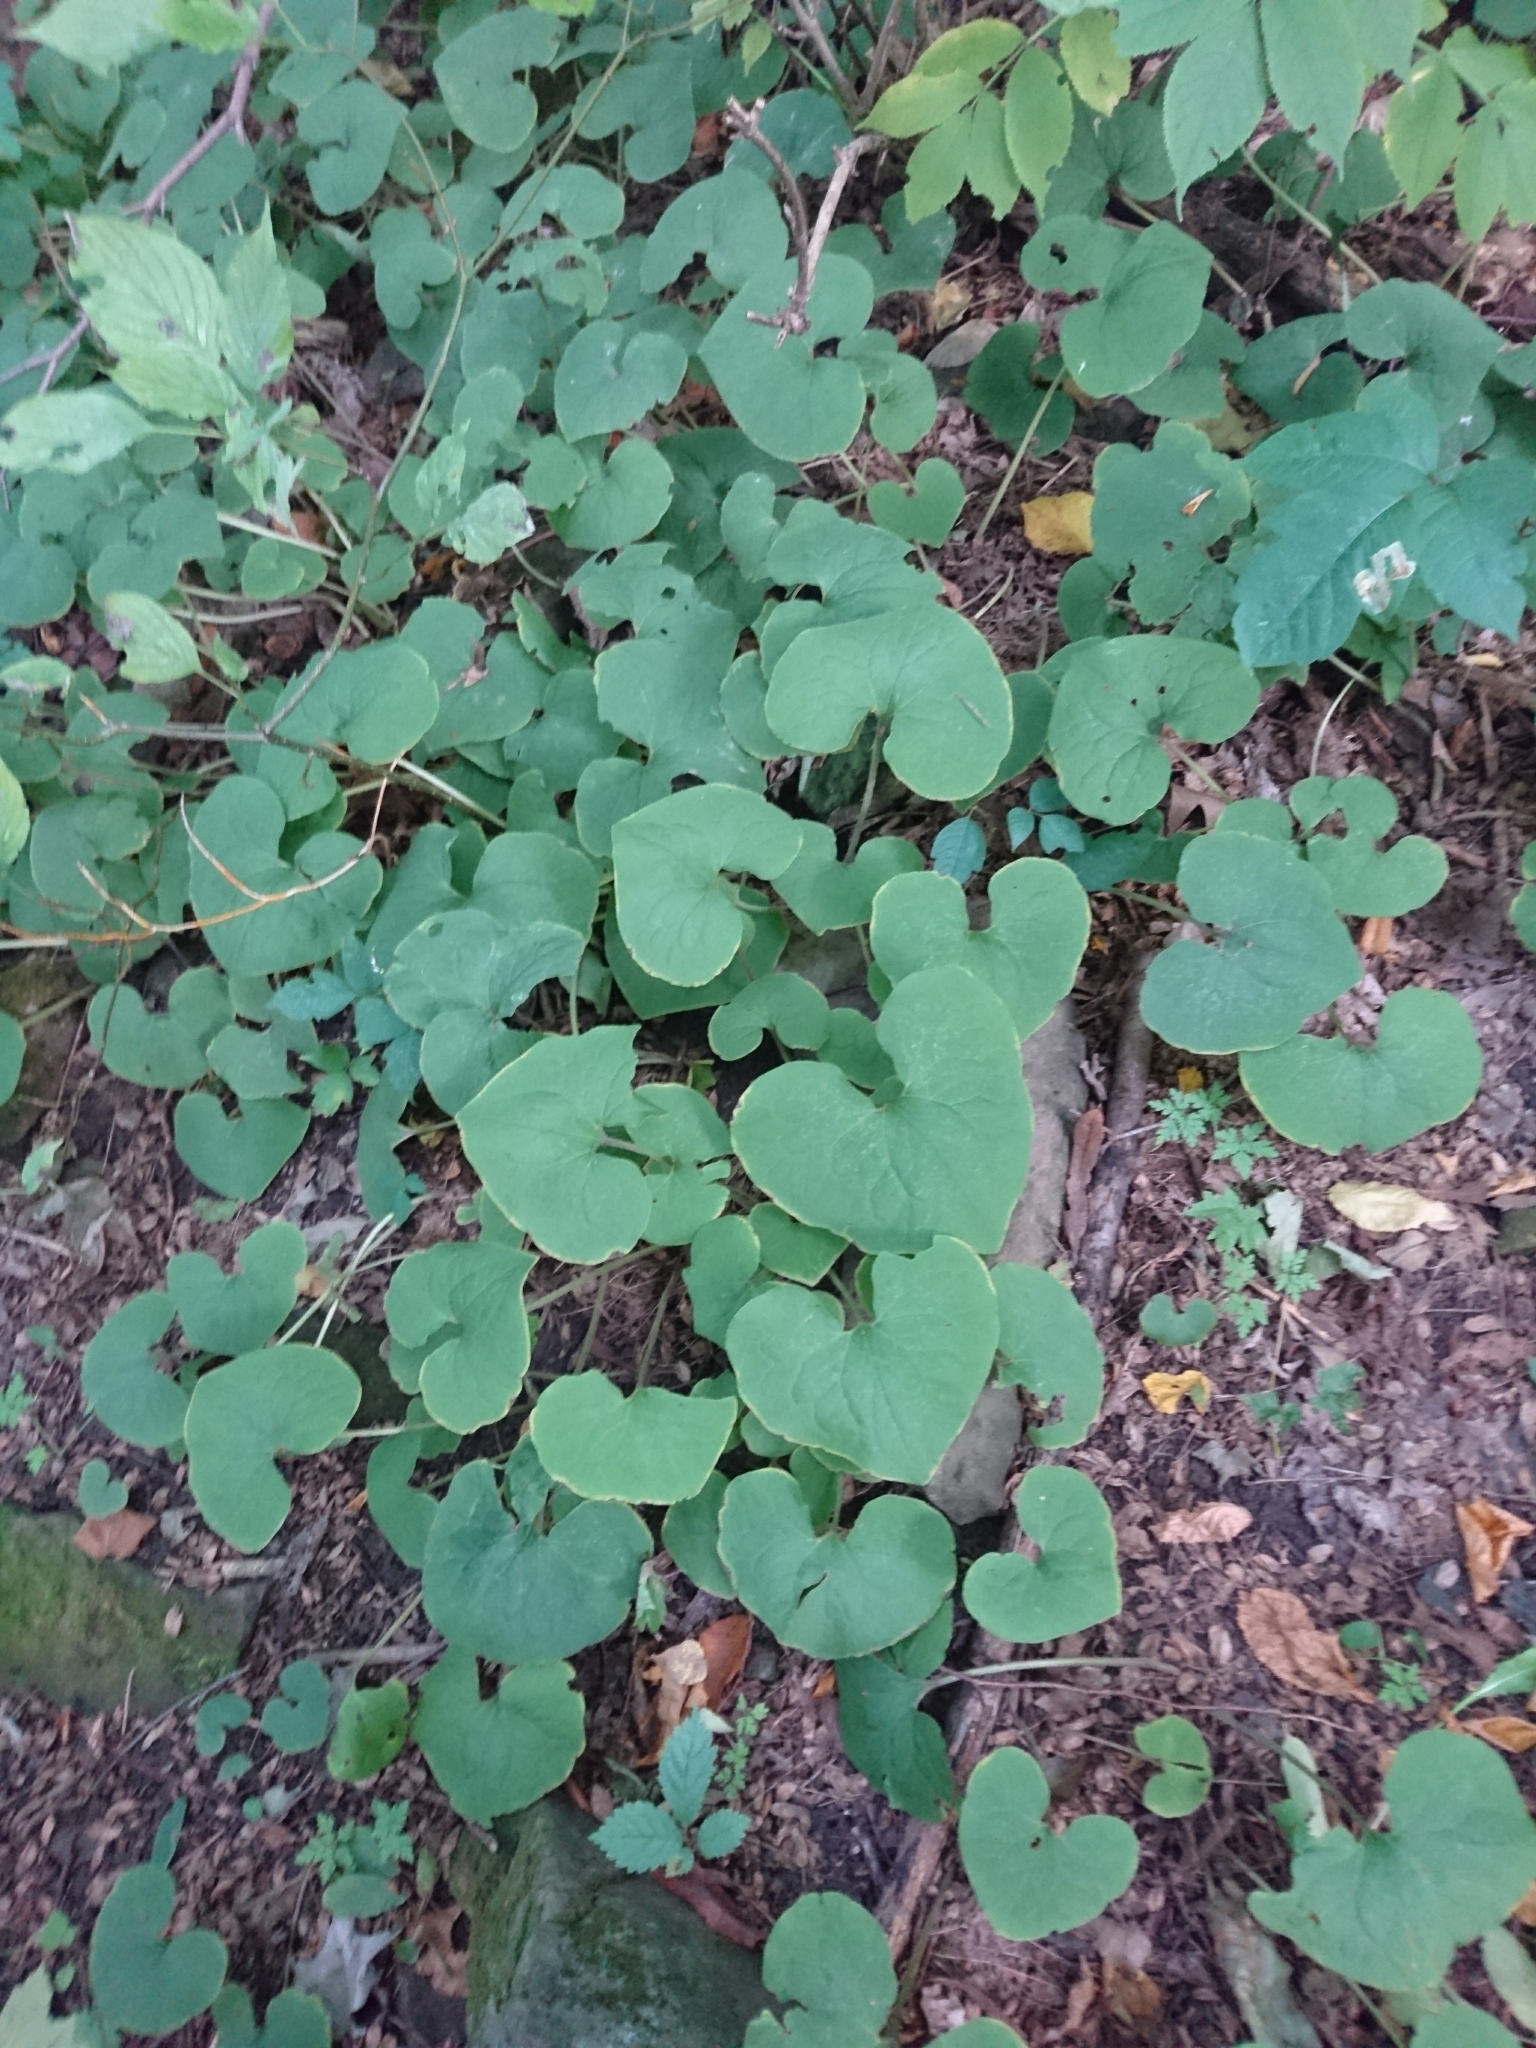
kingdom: Plantae
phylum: Tracheophyta
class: Magnoliopsida
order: Piperales
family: Aristolochiaceae
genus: Asarum
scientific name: Asarum canadense
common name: Wild ginger
